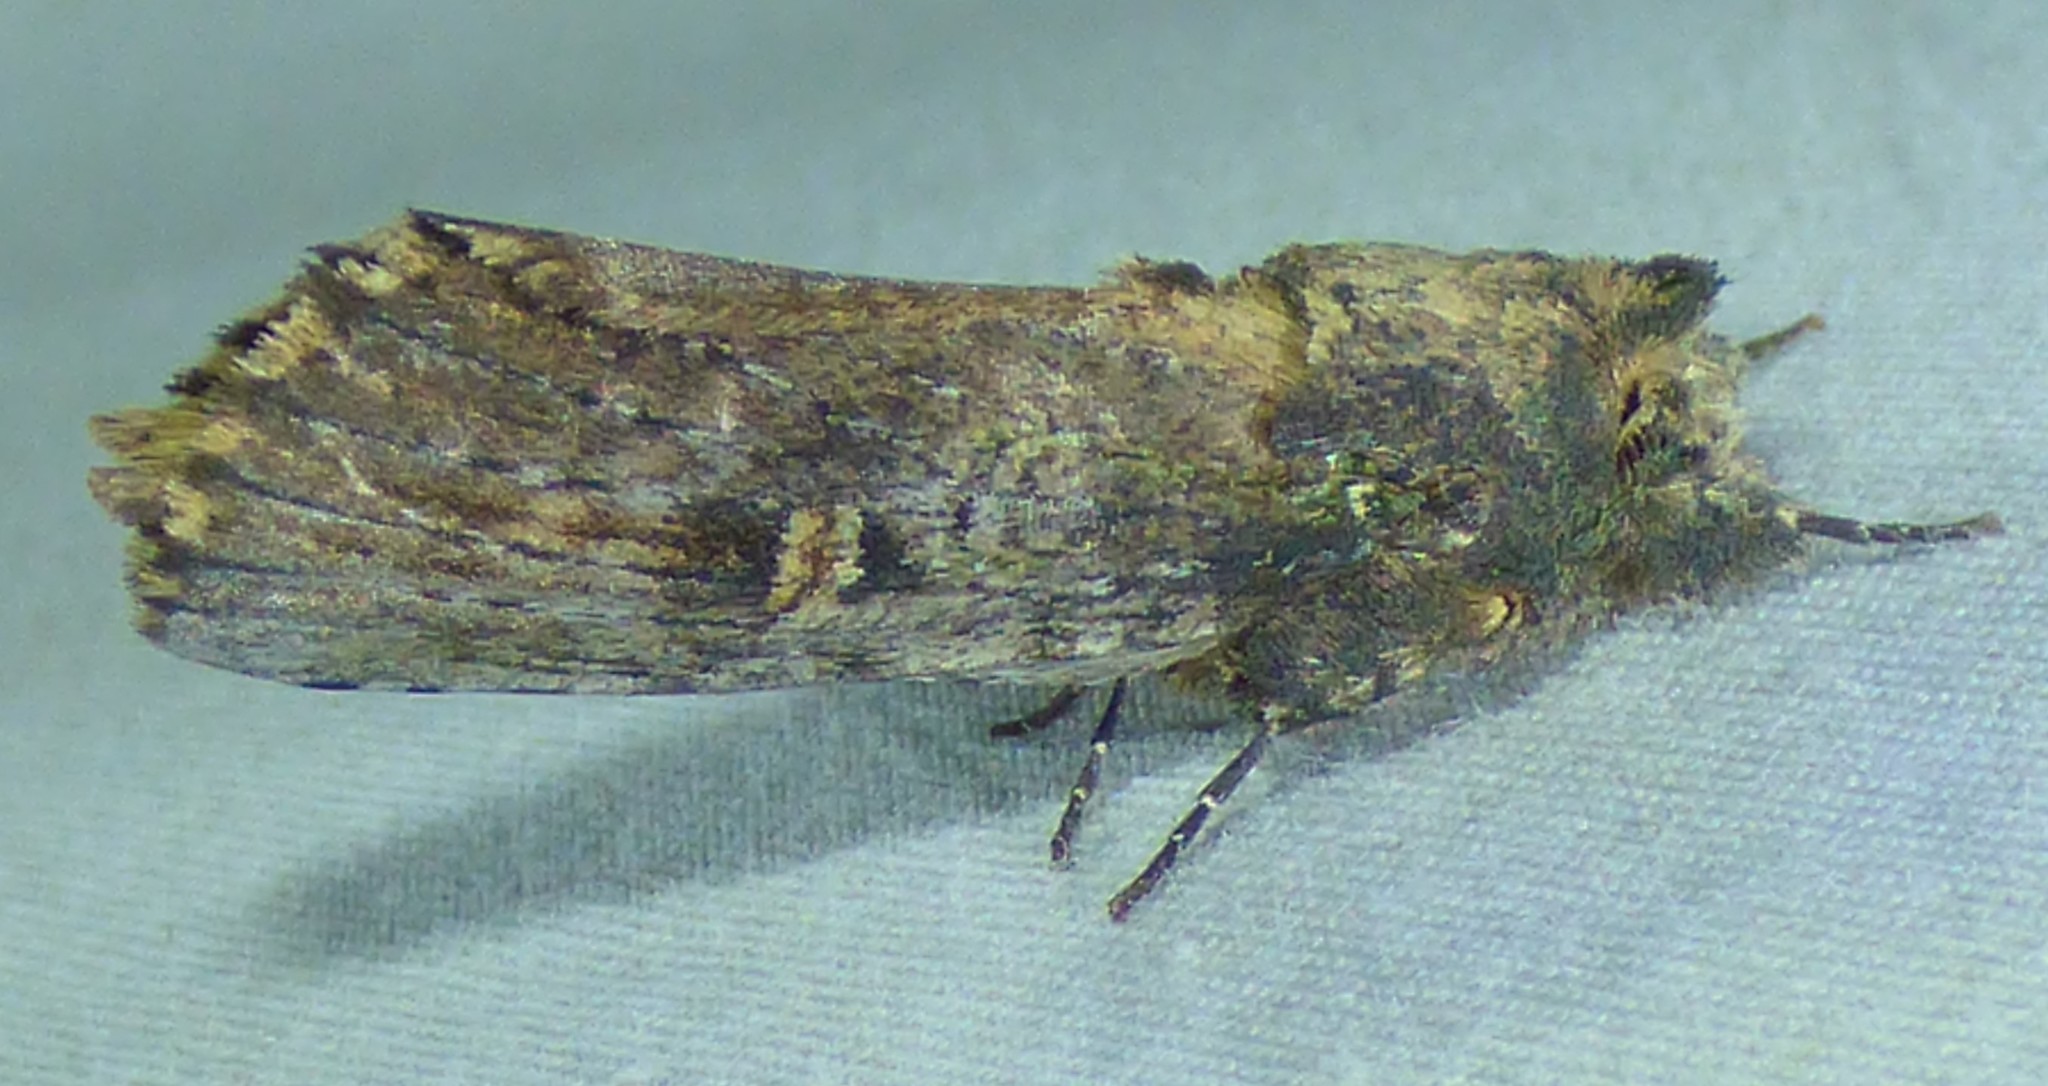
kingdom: Animalia
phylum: Arthropoda
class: Insecta
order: Lepidoptera
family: Notodontidae
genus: Schizura
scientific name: Schizura ipomaeae
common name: Morning-glory prominent
